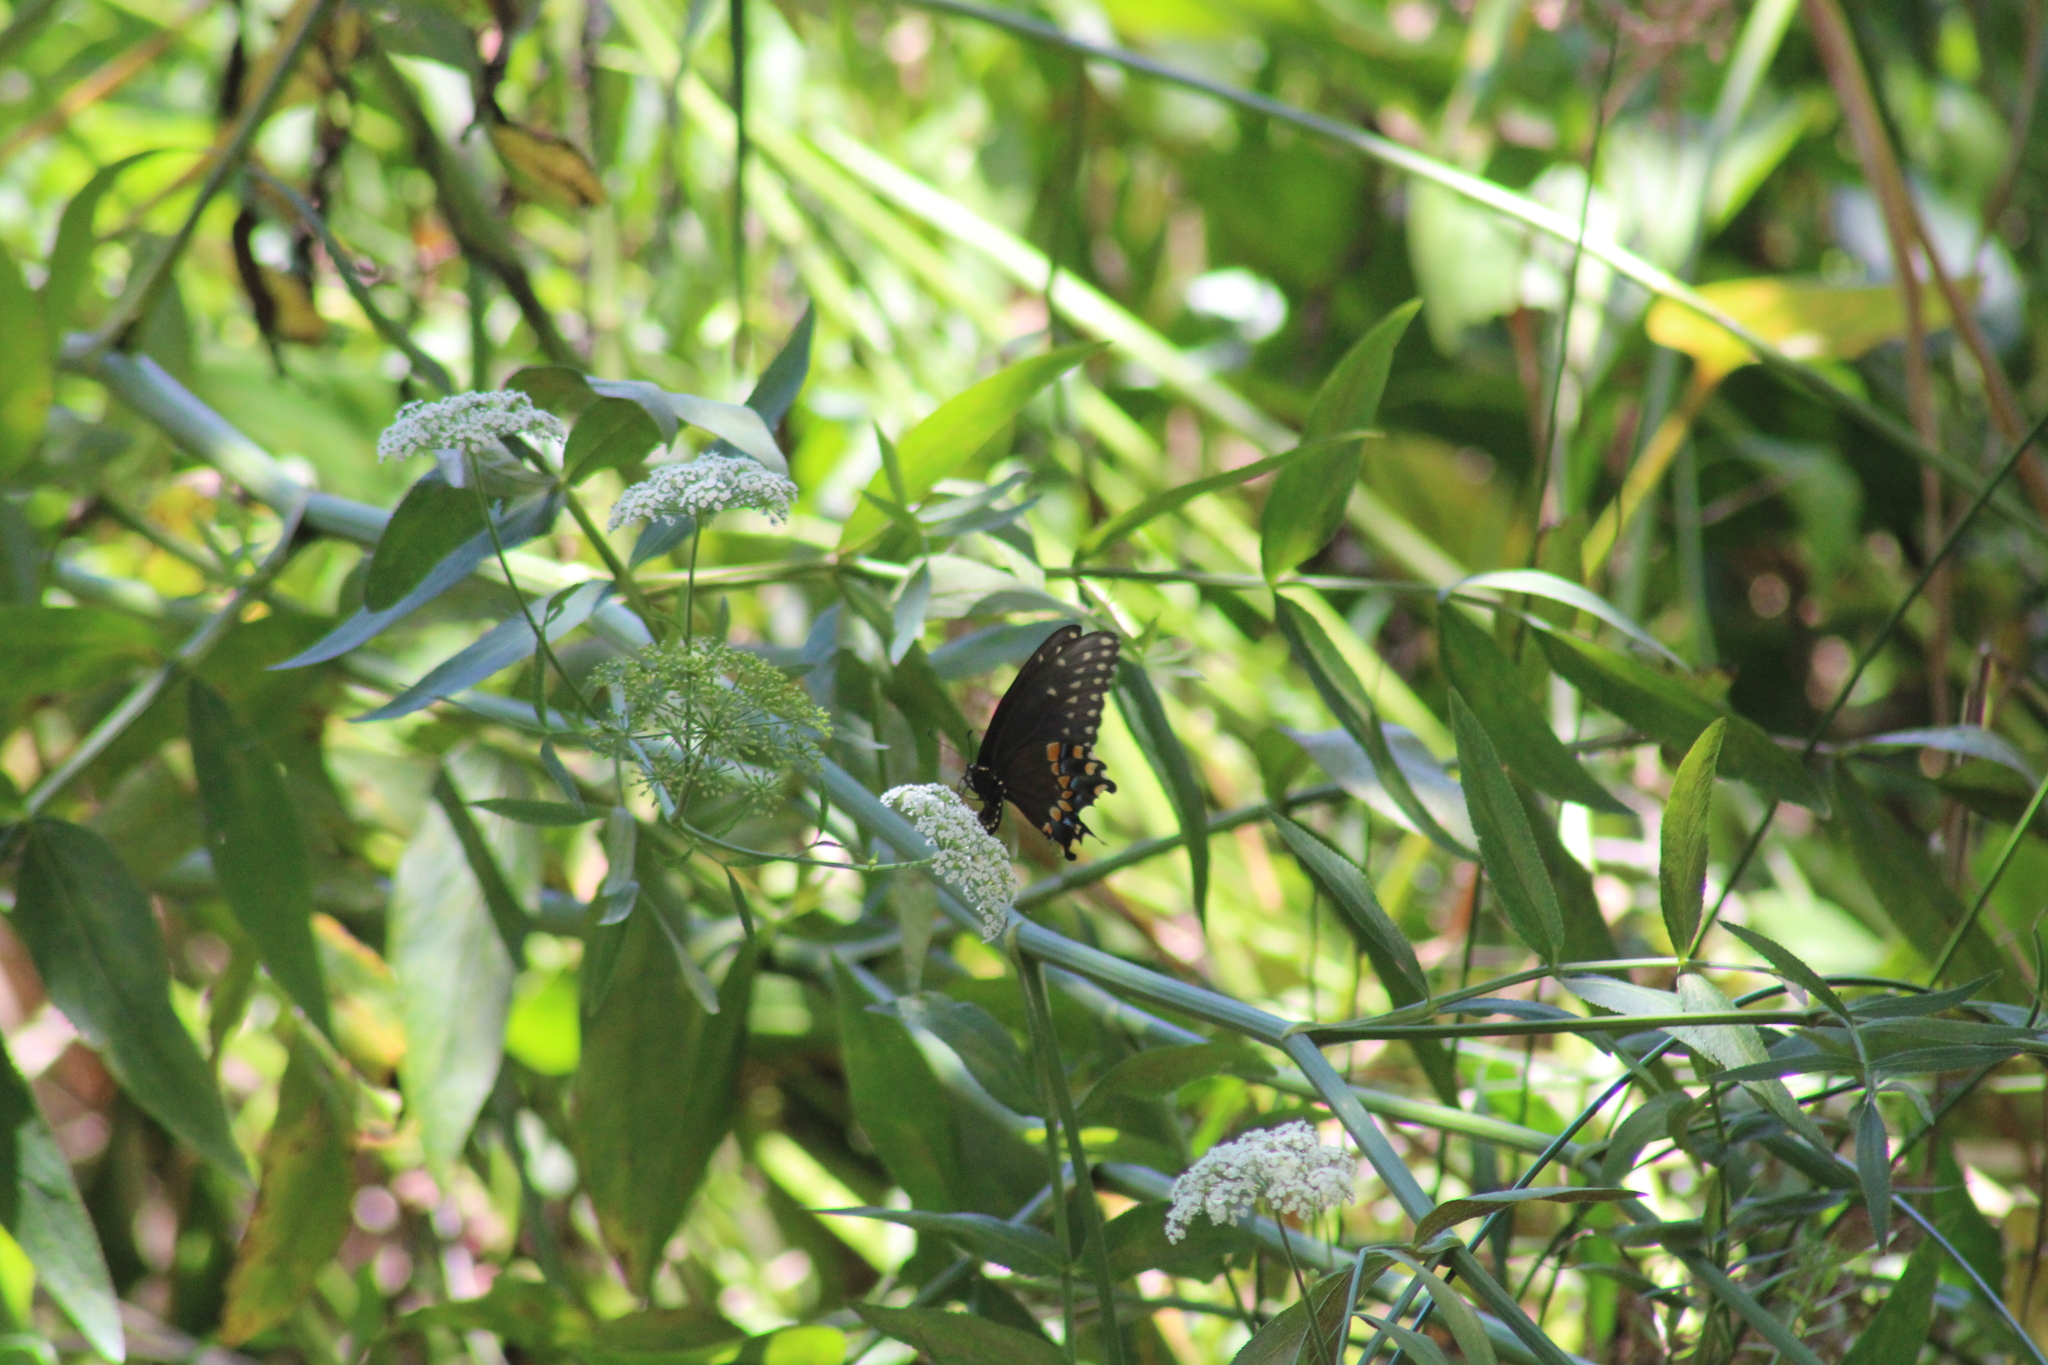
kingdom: Animalia
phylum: Arthropoda
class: Insecta
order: Lepidoptera
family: Papilionidae
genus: Papilio
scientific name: Papilio polyxenes
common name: Black swallowtail
